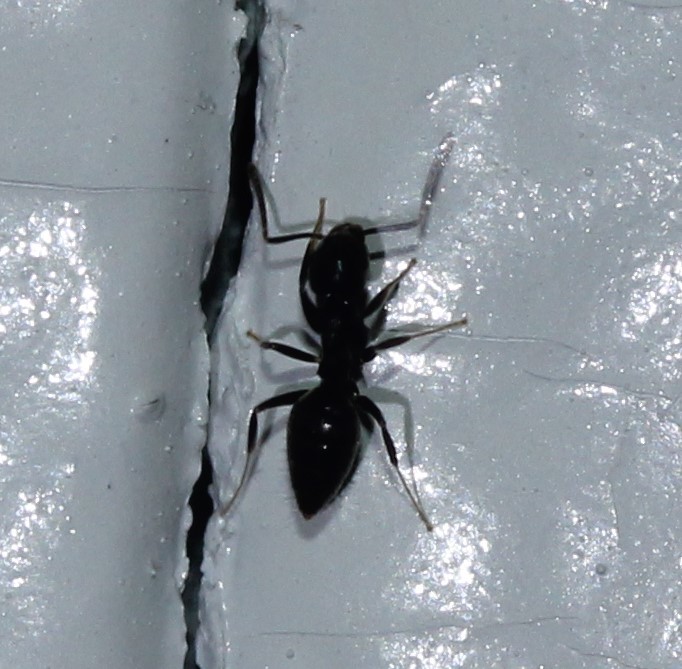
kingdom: Animalia
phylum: Arthropoda
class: Insecta
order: Hymenoptera
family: Formicidae
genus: Technomyrmex
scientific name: Technomyrmex difficilis
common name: Ant
